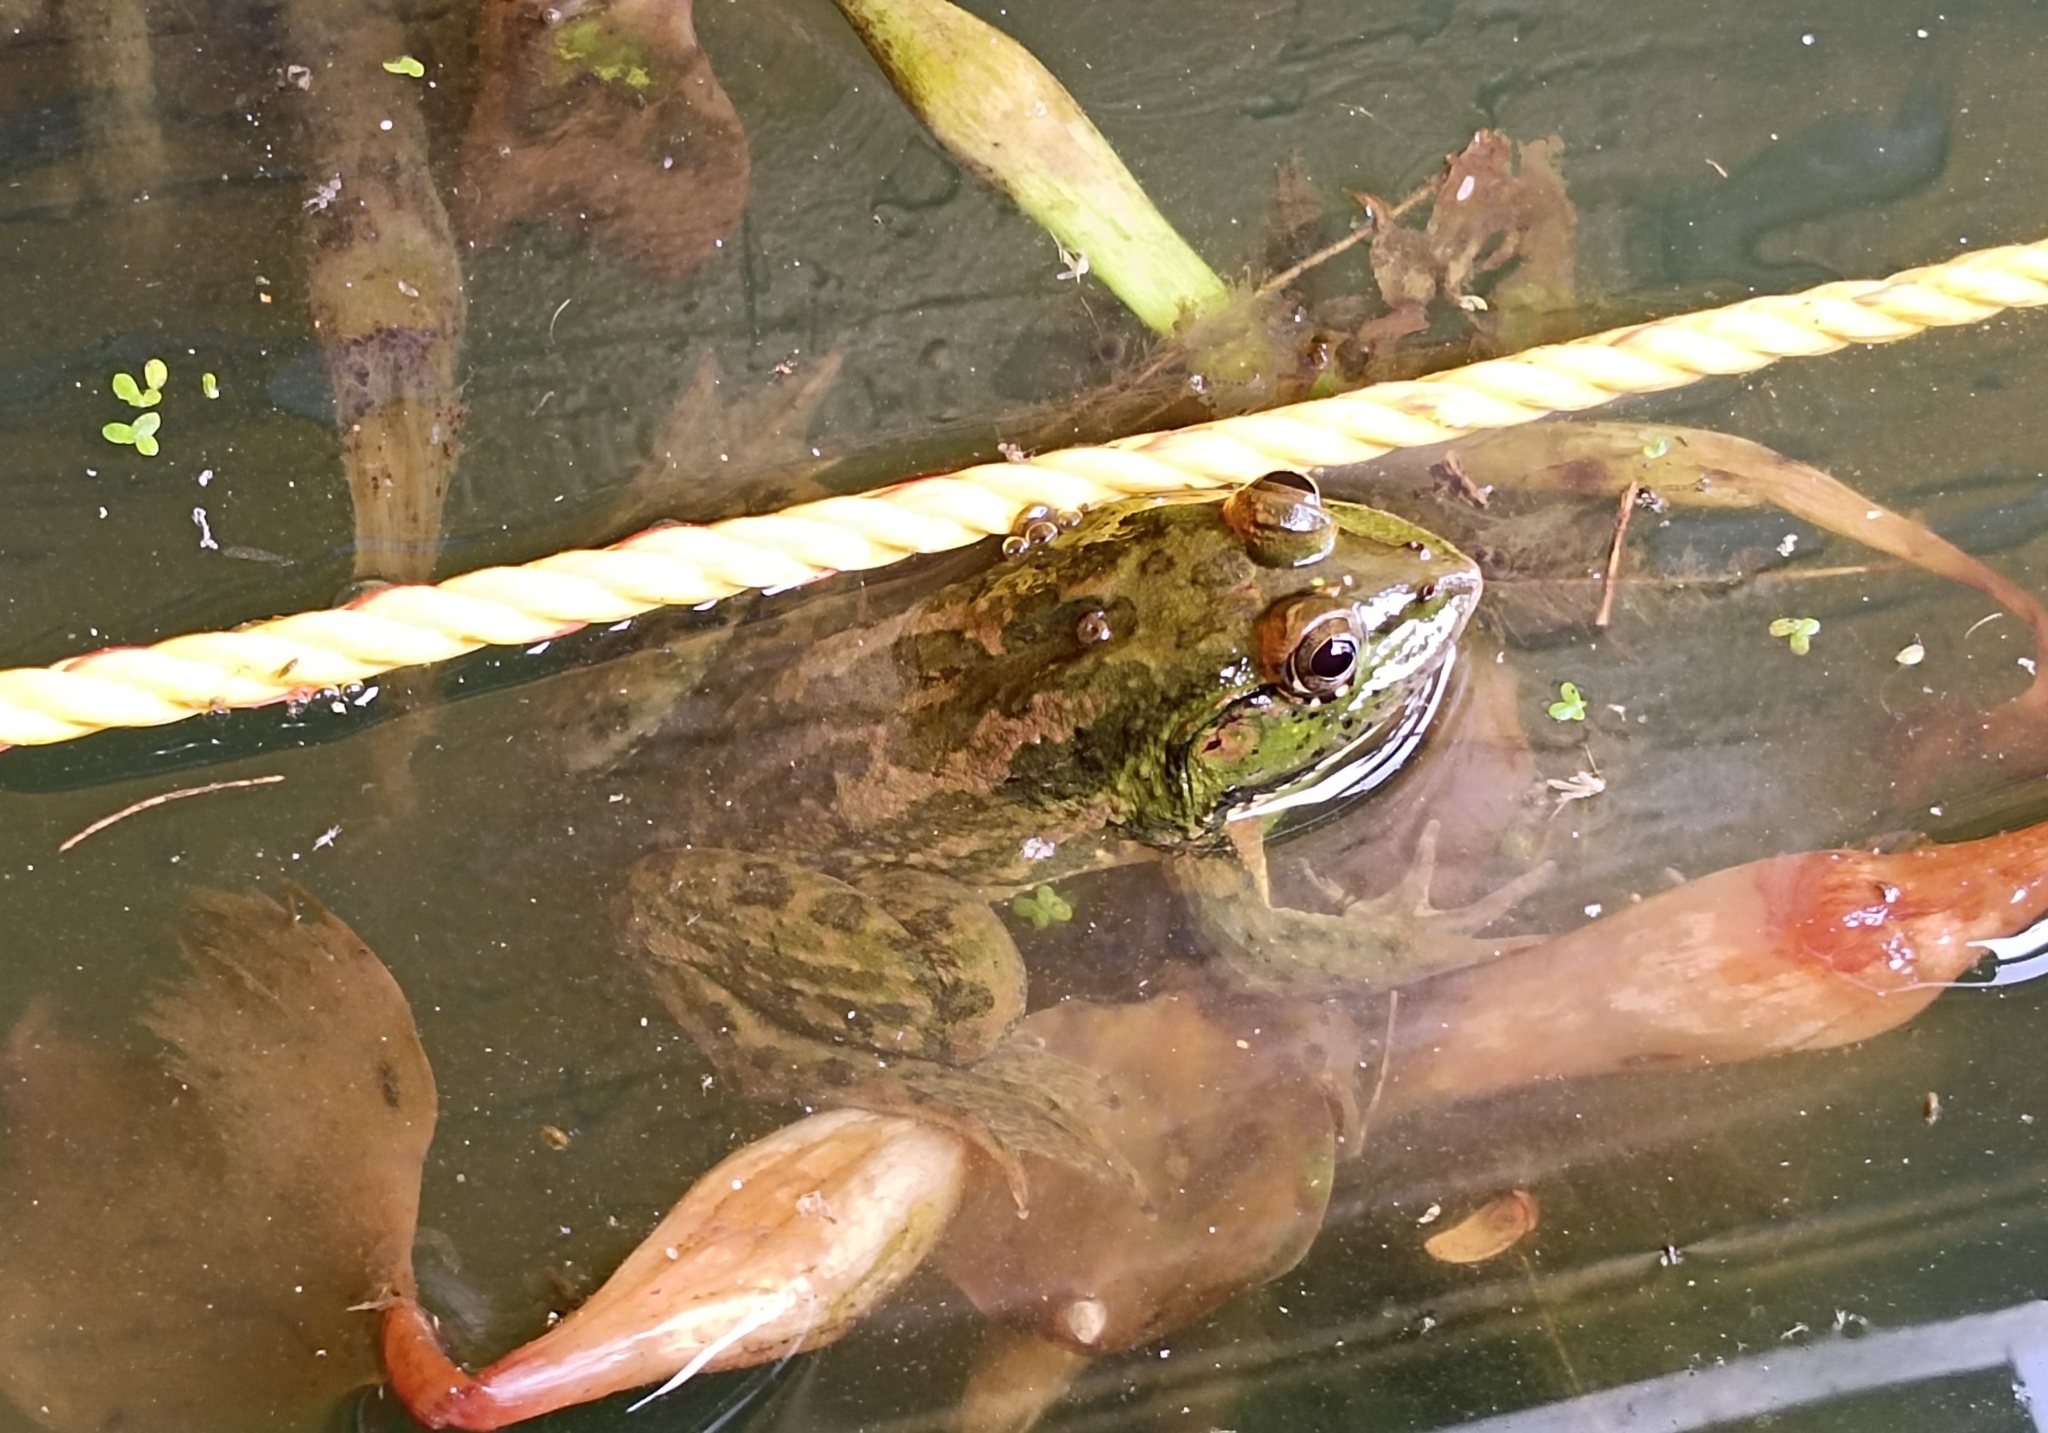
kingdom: Animalia
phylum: Chordata
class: Amphibia
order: Anura
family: Dicroglossidae
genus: Euphlyctis
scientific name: Euphlyctis karaavali
